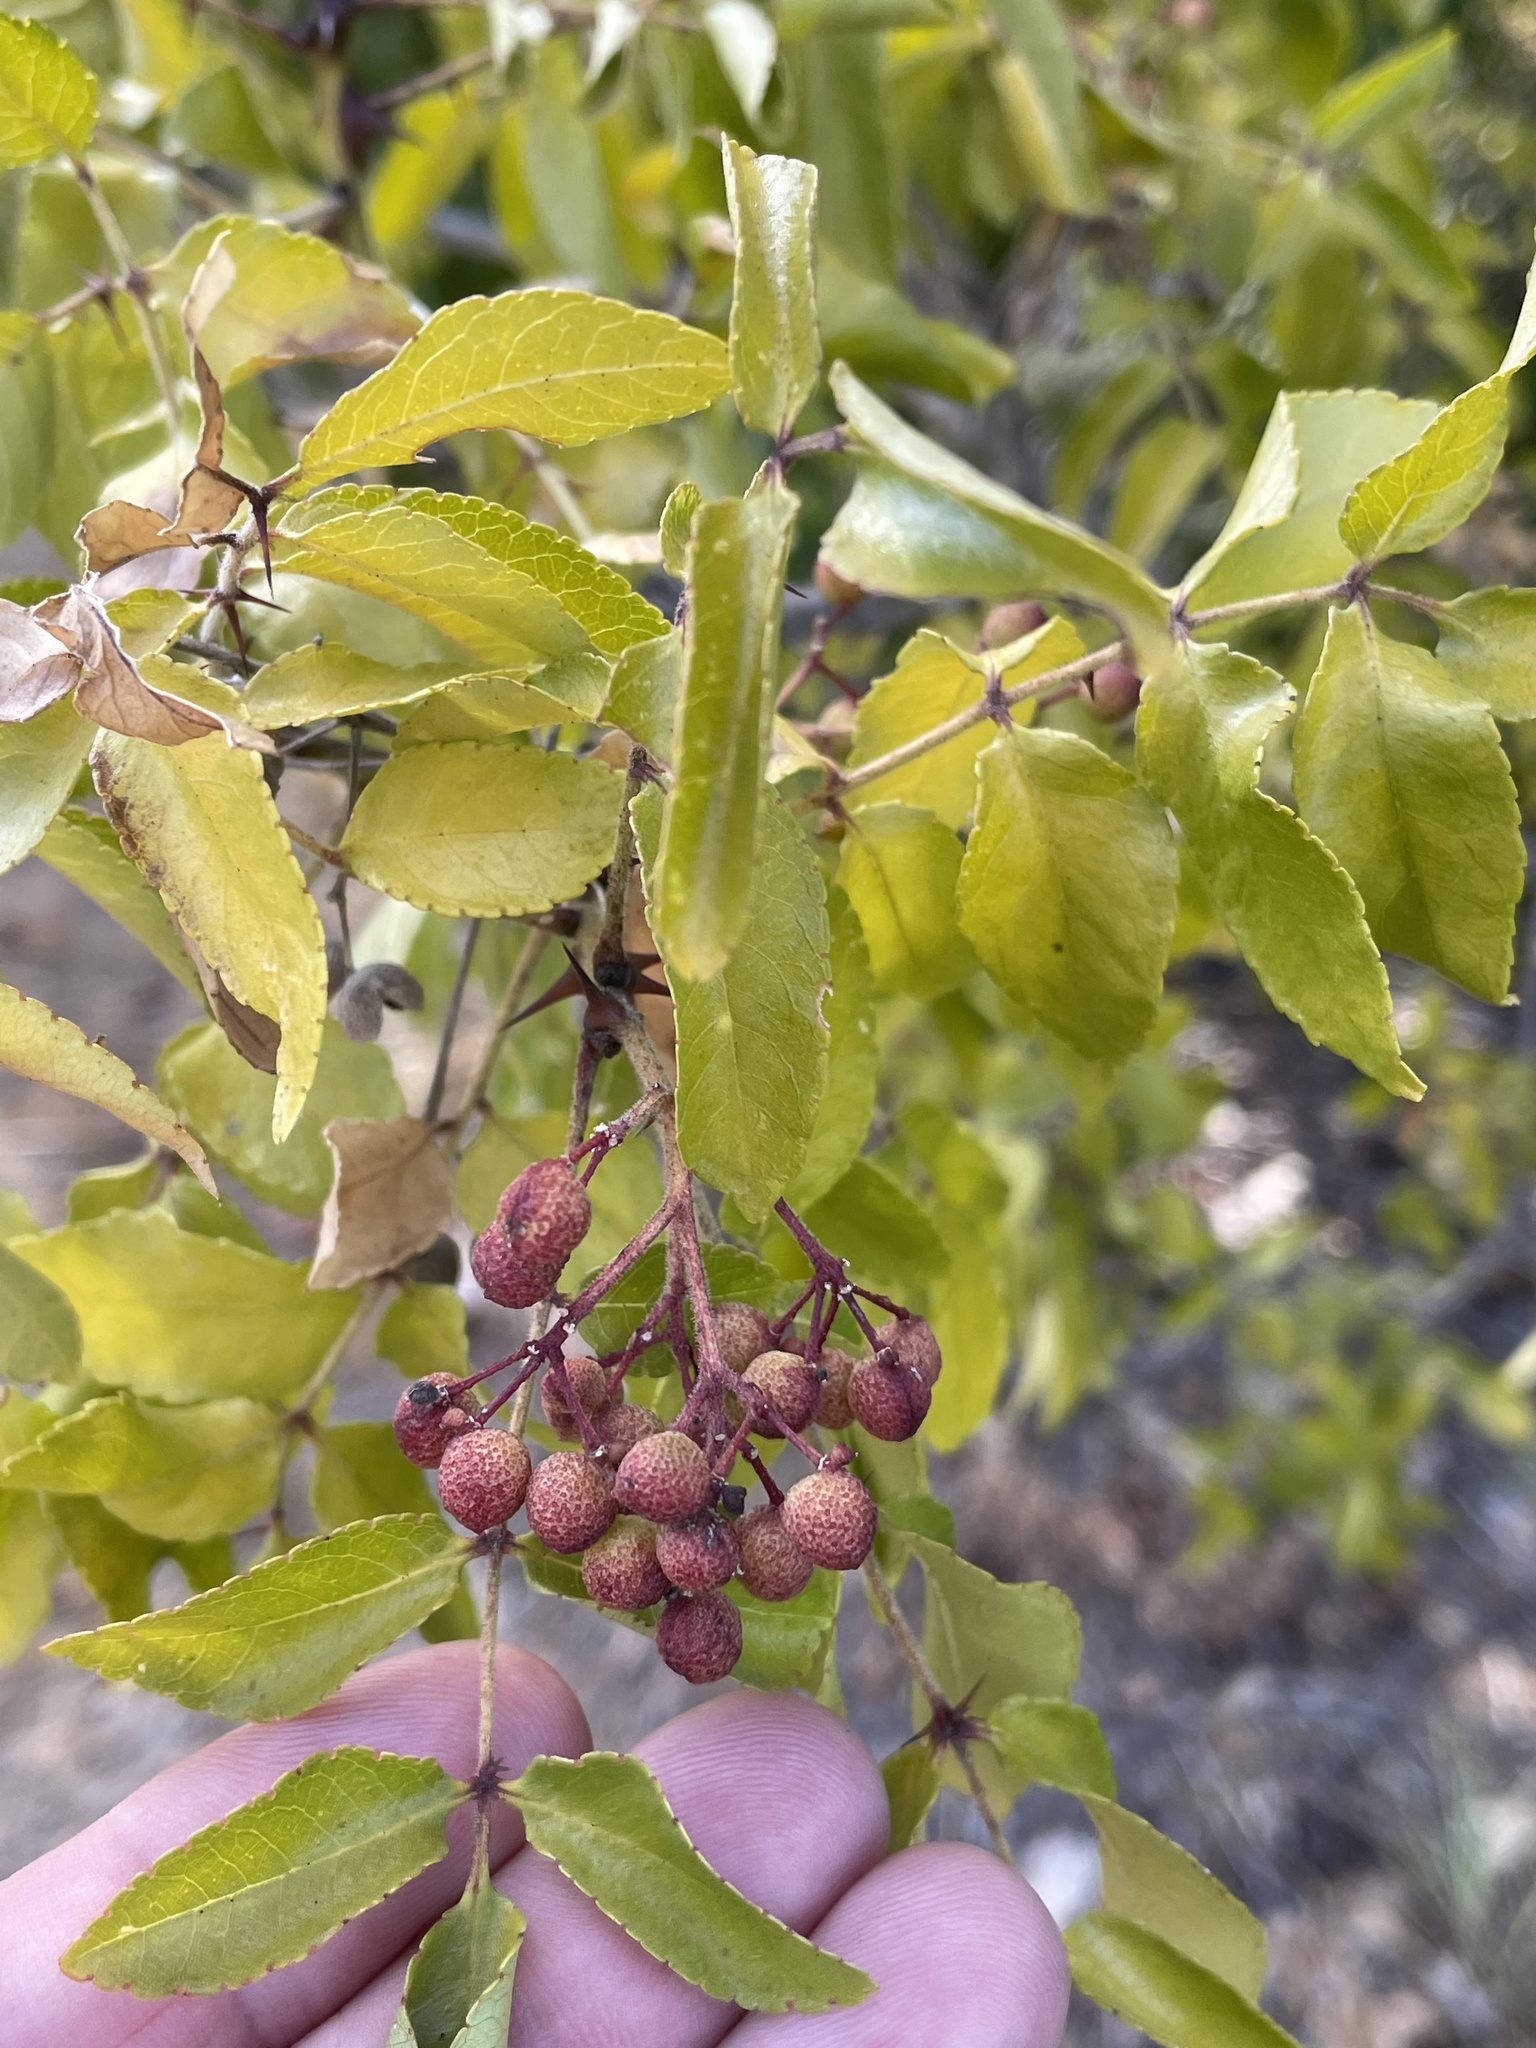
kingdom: Plantae
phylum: Tracheophyta
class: Magnoliopsida
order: Sapindales
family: Rutaceae
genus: Zanthoxylum
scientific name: Zanthoxylum clava-herculis
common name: Hercules'-club
